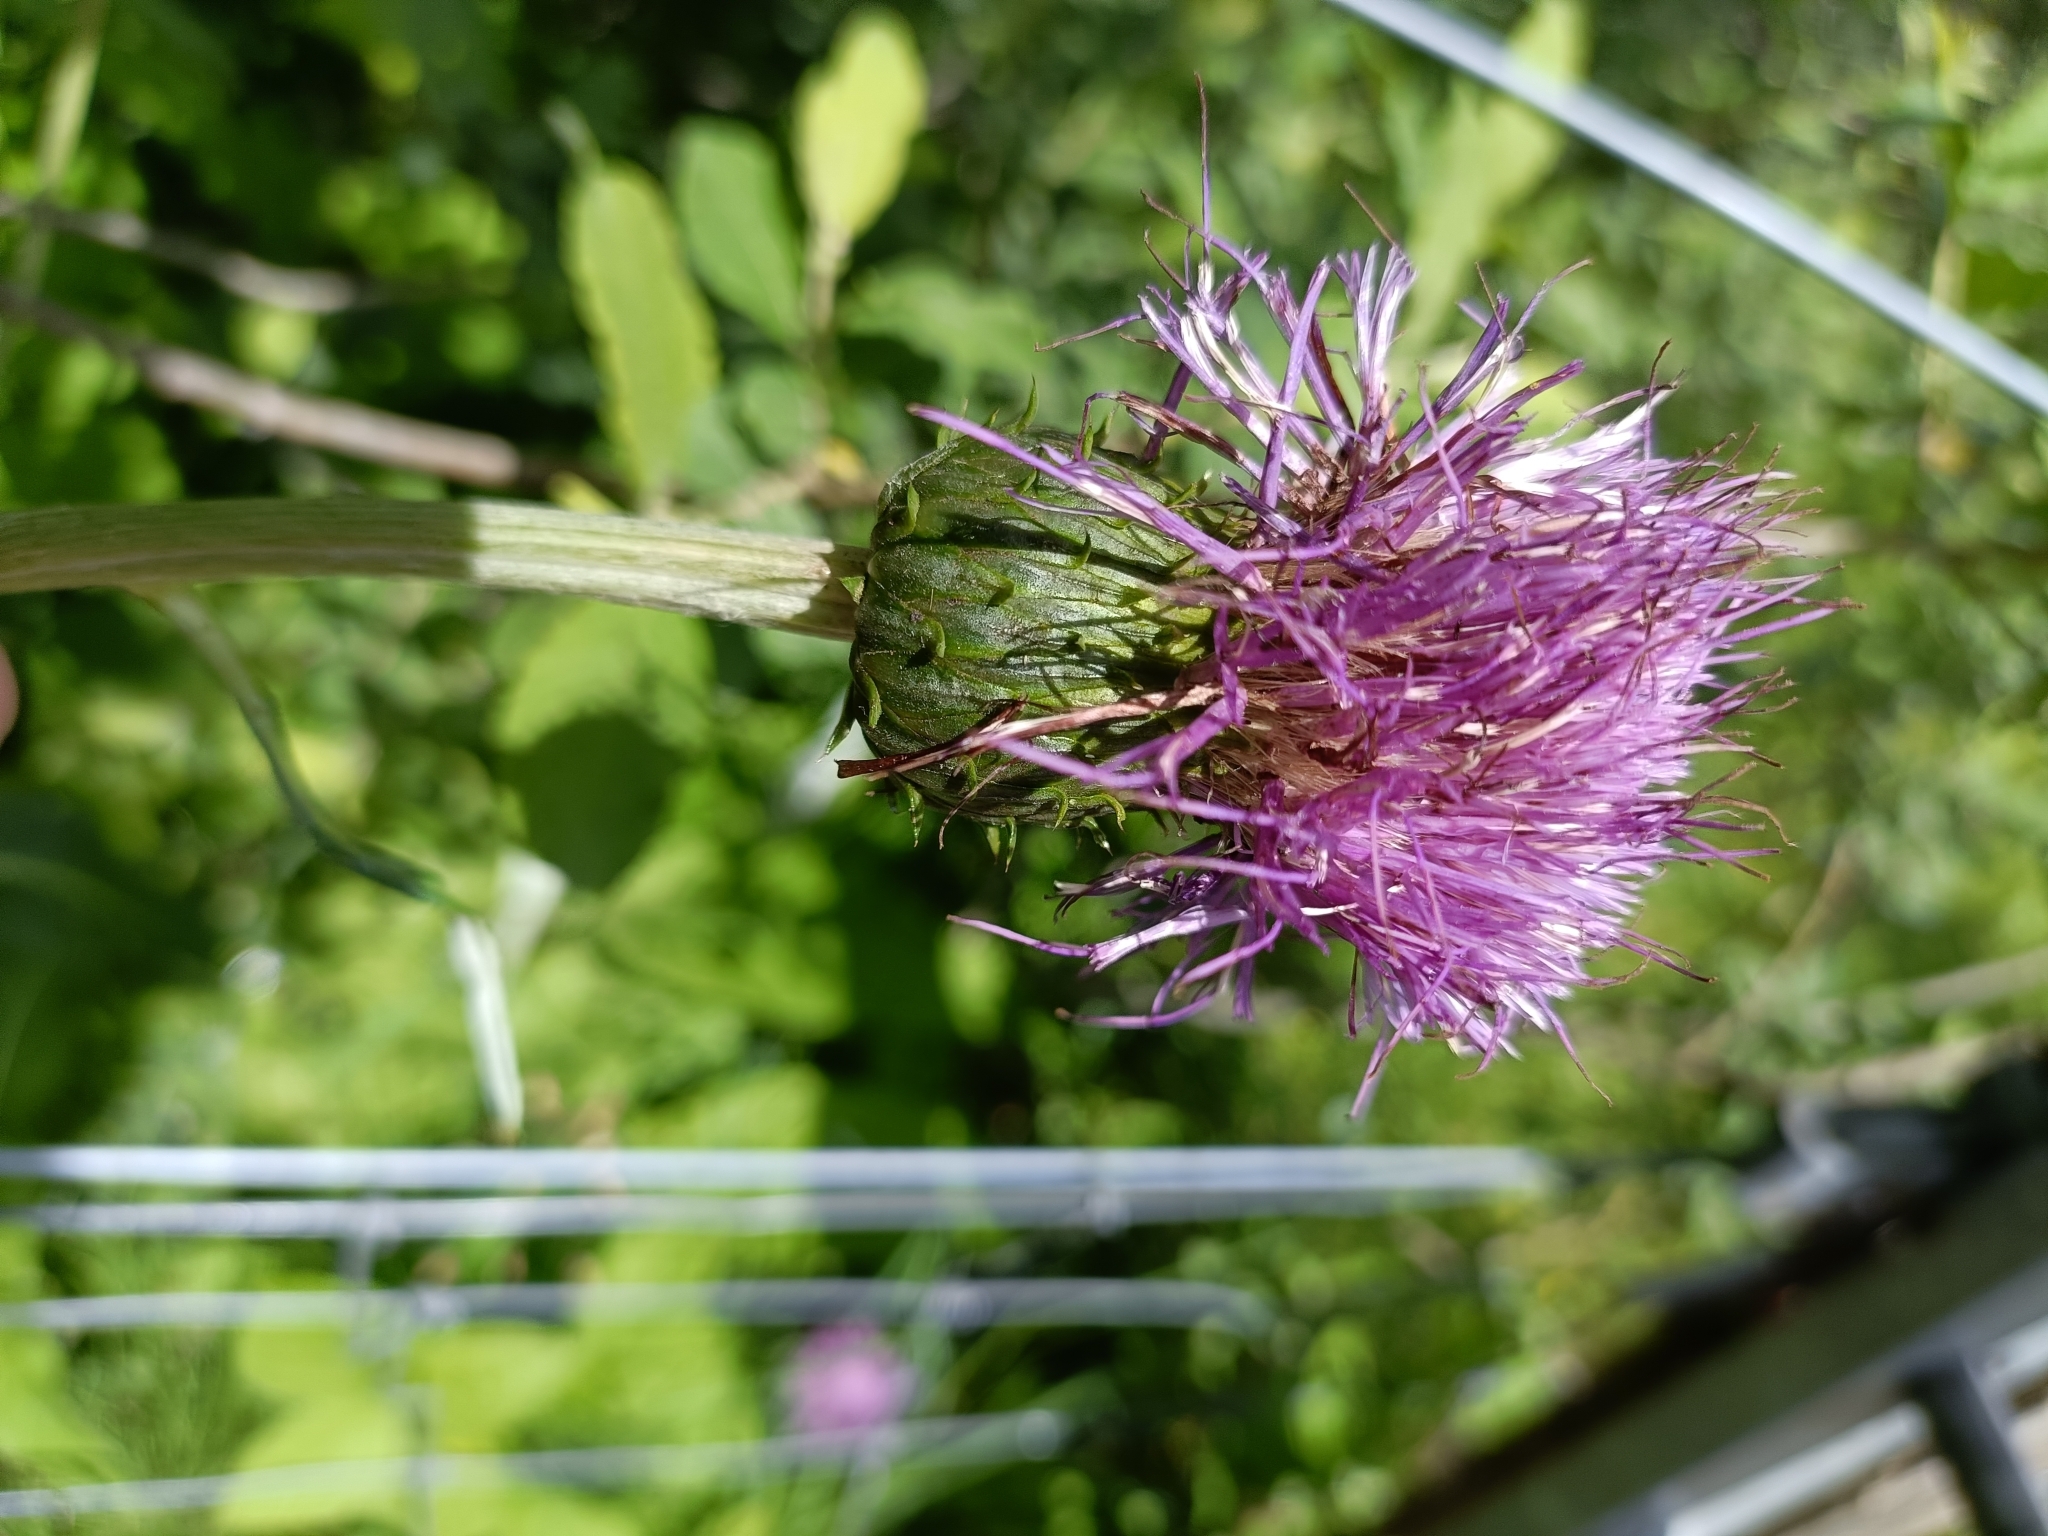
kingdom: Plantae
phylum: Tracheophyta
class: Magnoliopsida
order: Asterales
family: Asteraceae
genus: Cirsium
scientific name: Cirsium heterophyllum
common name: Melancholy thistle
